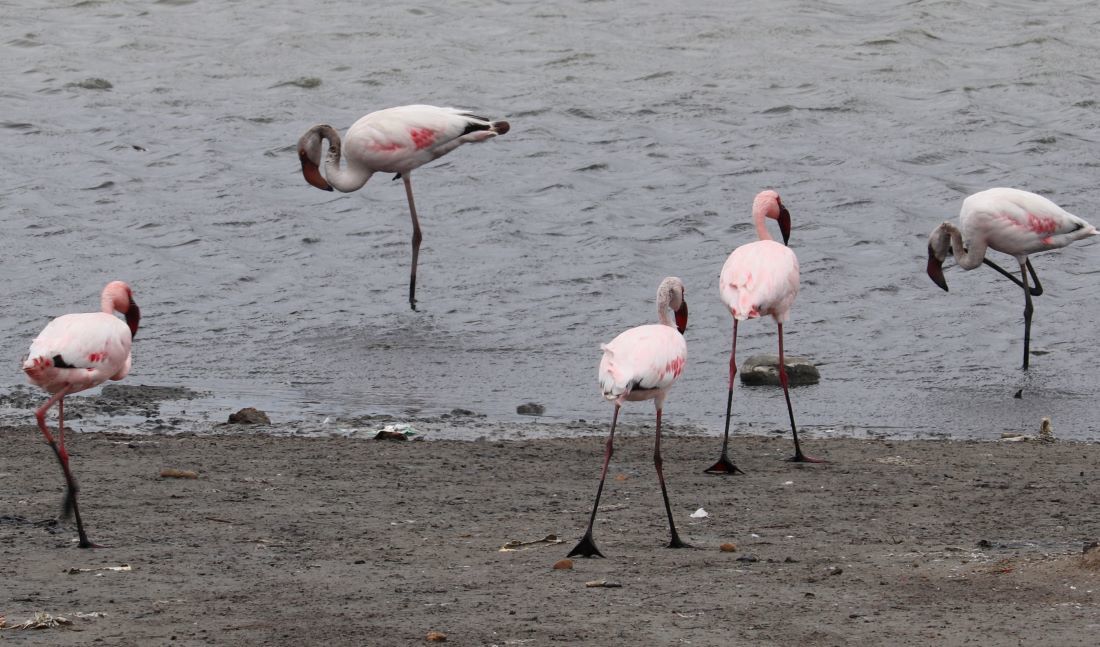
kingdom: Animalia
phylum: Chordata
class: Aves
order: Phoenicopteriformes
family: Phoenicopteridae
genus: Phoeniconaias
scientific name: Phoeniconaias minor
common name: Lesser flamingo
